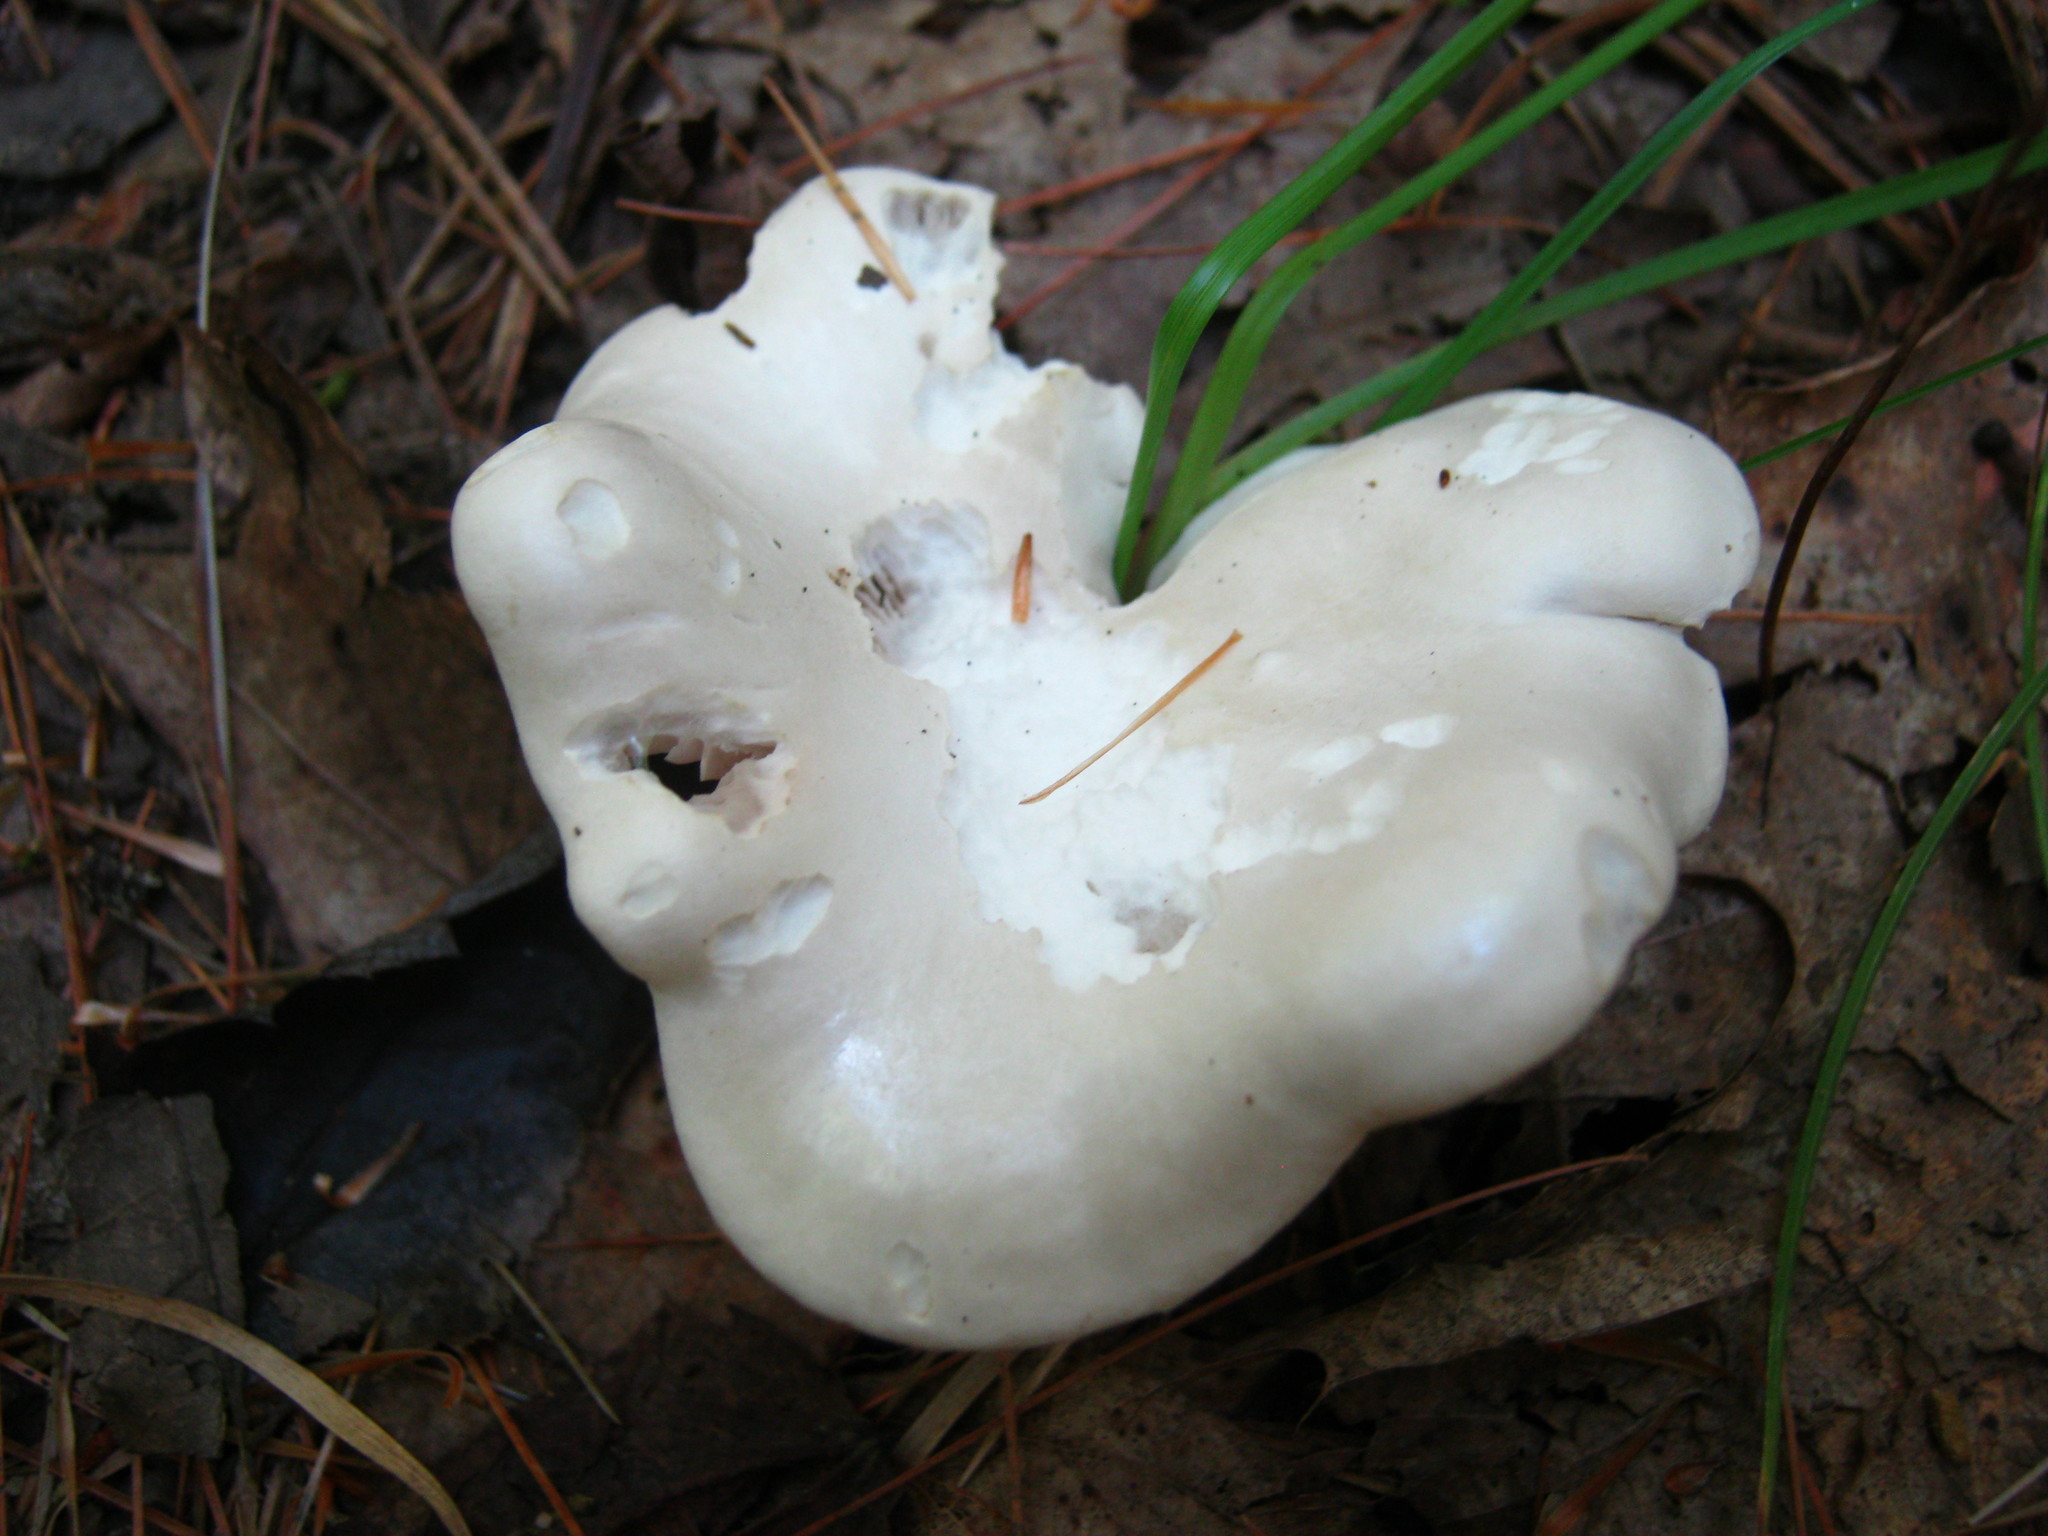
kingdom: Fungi
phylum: Basidiomycota
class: Agaricomycetes
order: Agaricales
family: Entolomataceae
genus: Clitopilus
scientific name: Clitopilus prunulus
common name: The miller
